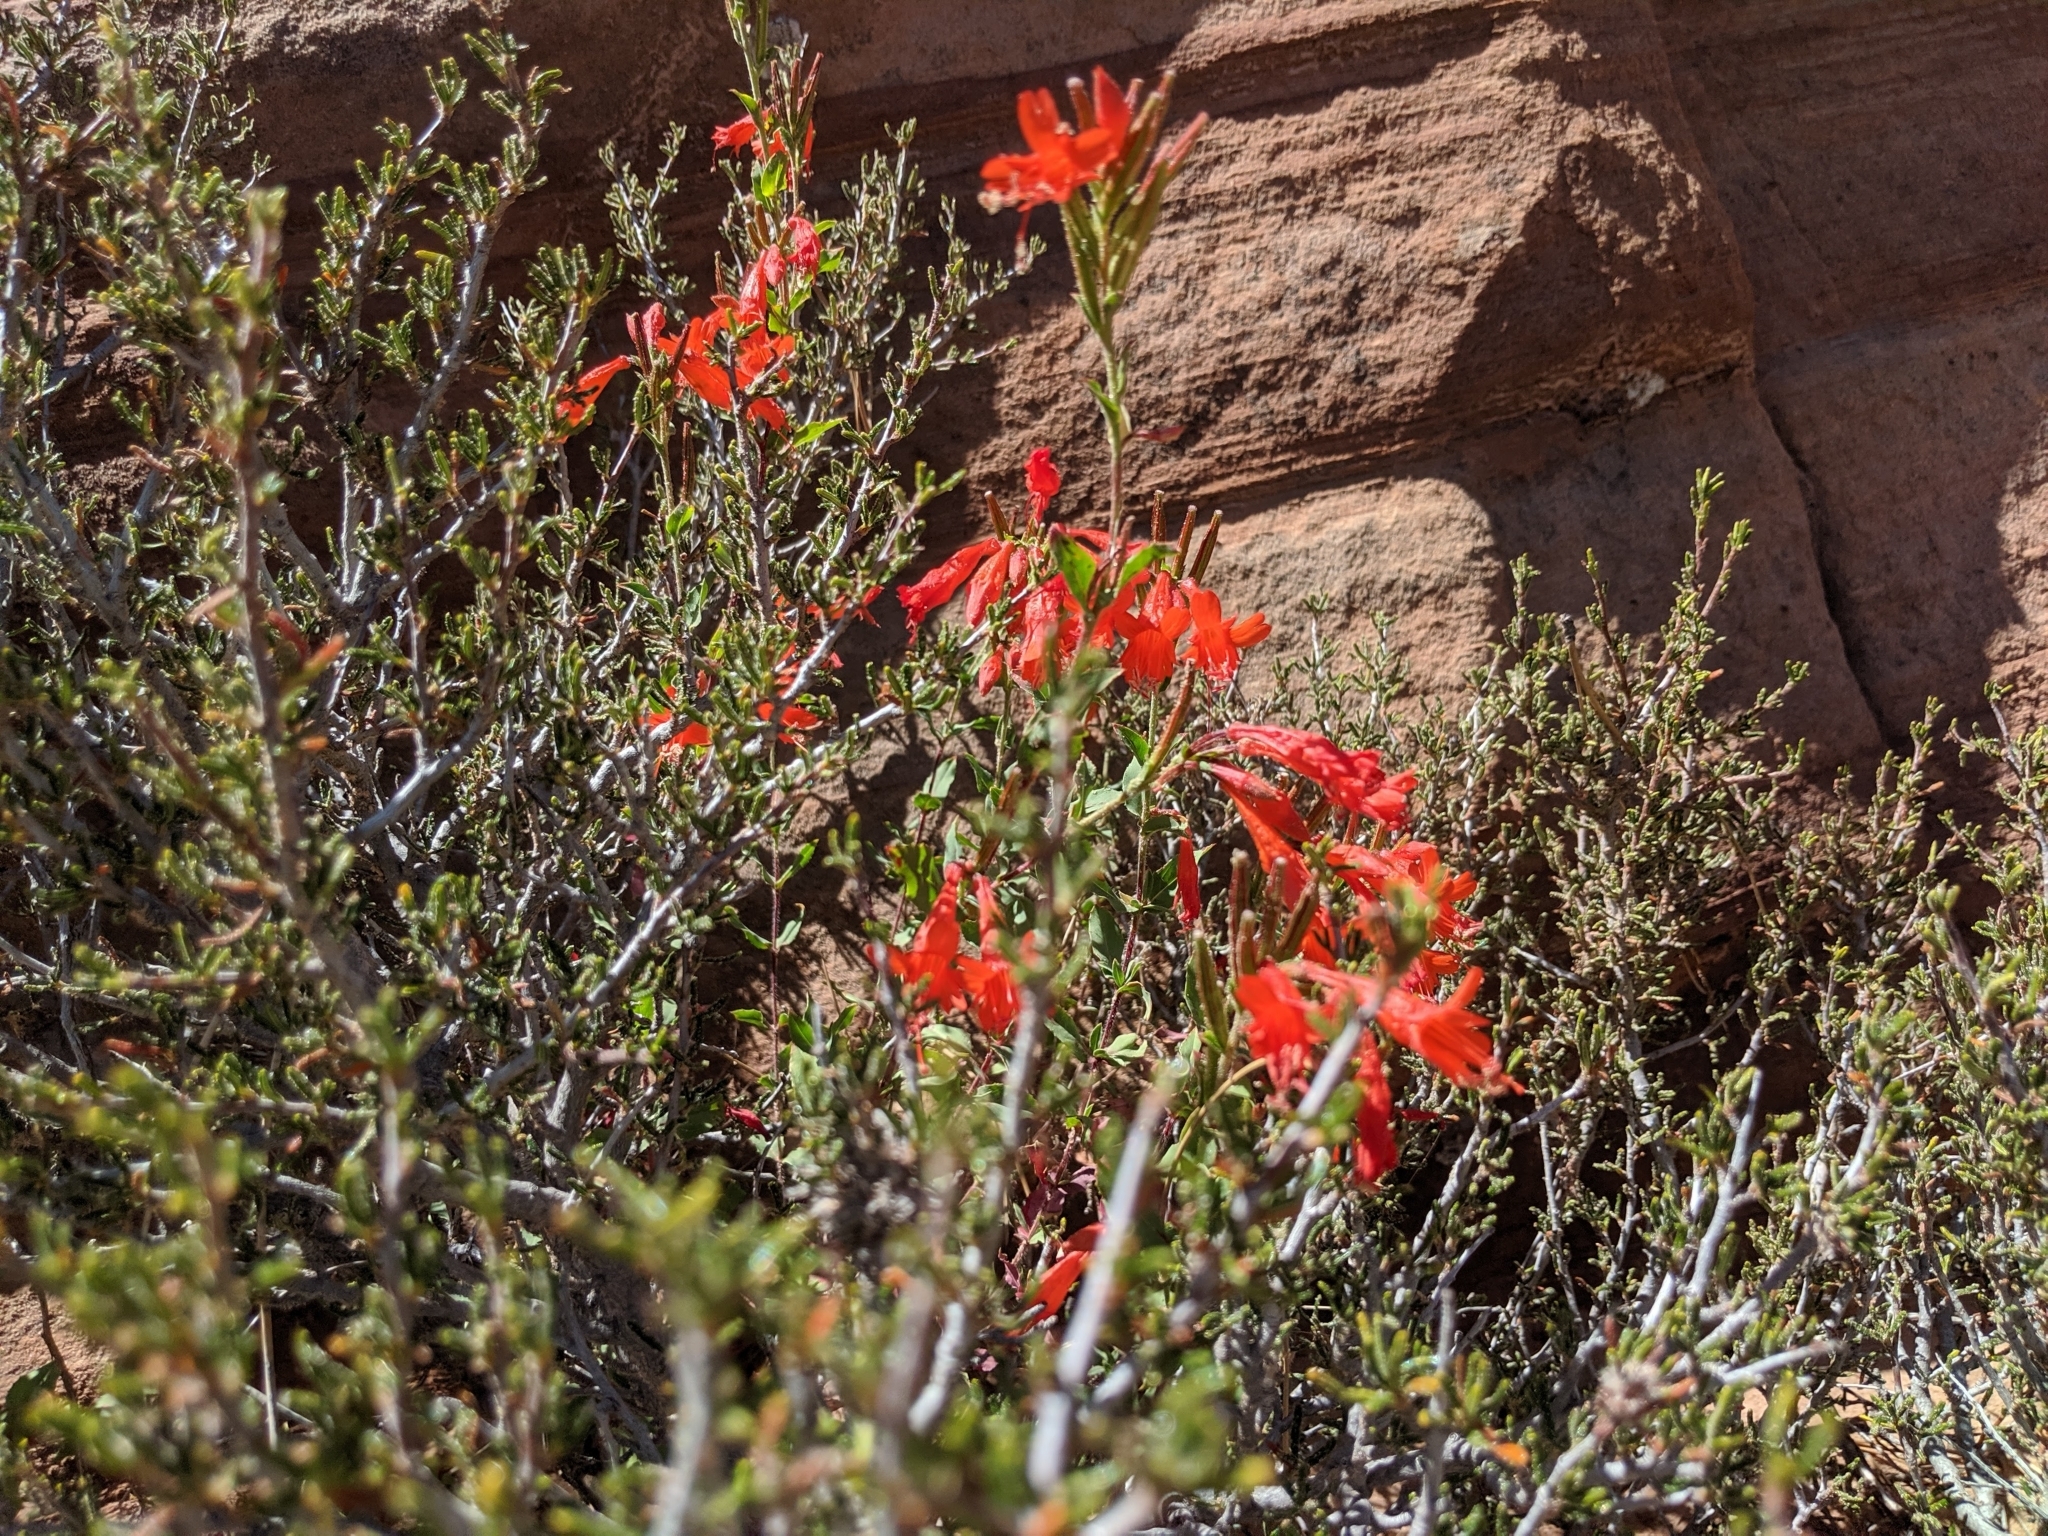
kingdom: Plantae
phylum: Tracheophyta
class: Magnoliopsida
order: Myrtales
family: Onagraceae
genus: Epilobium
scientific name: Epilobium canum
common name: California-fuchsia
